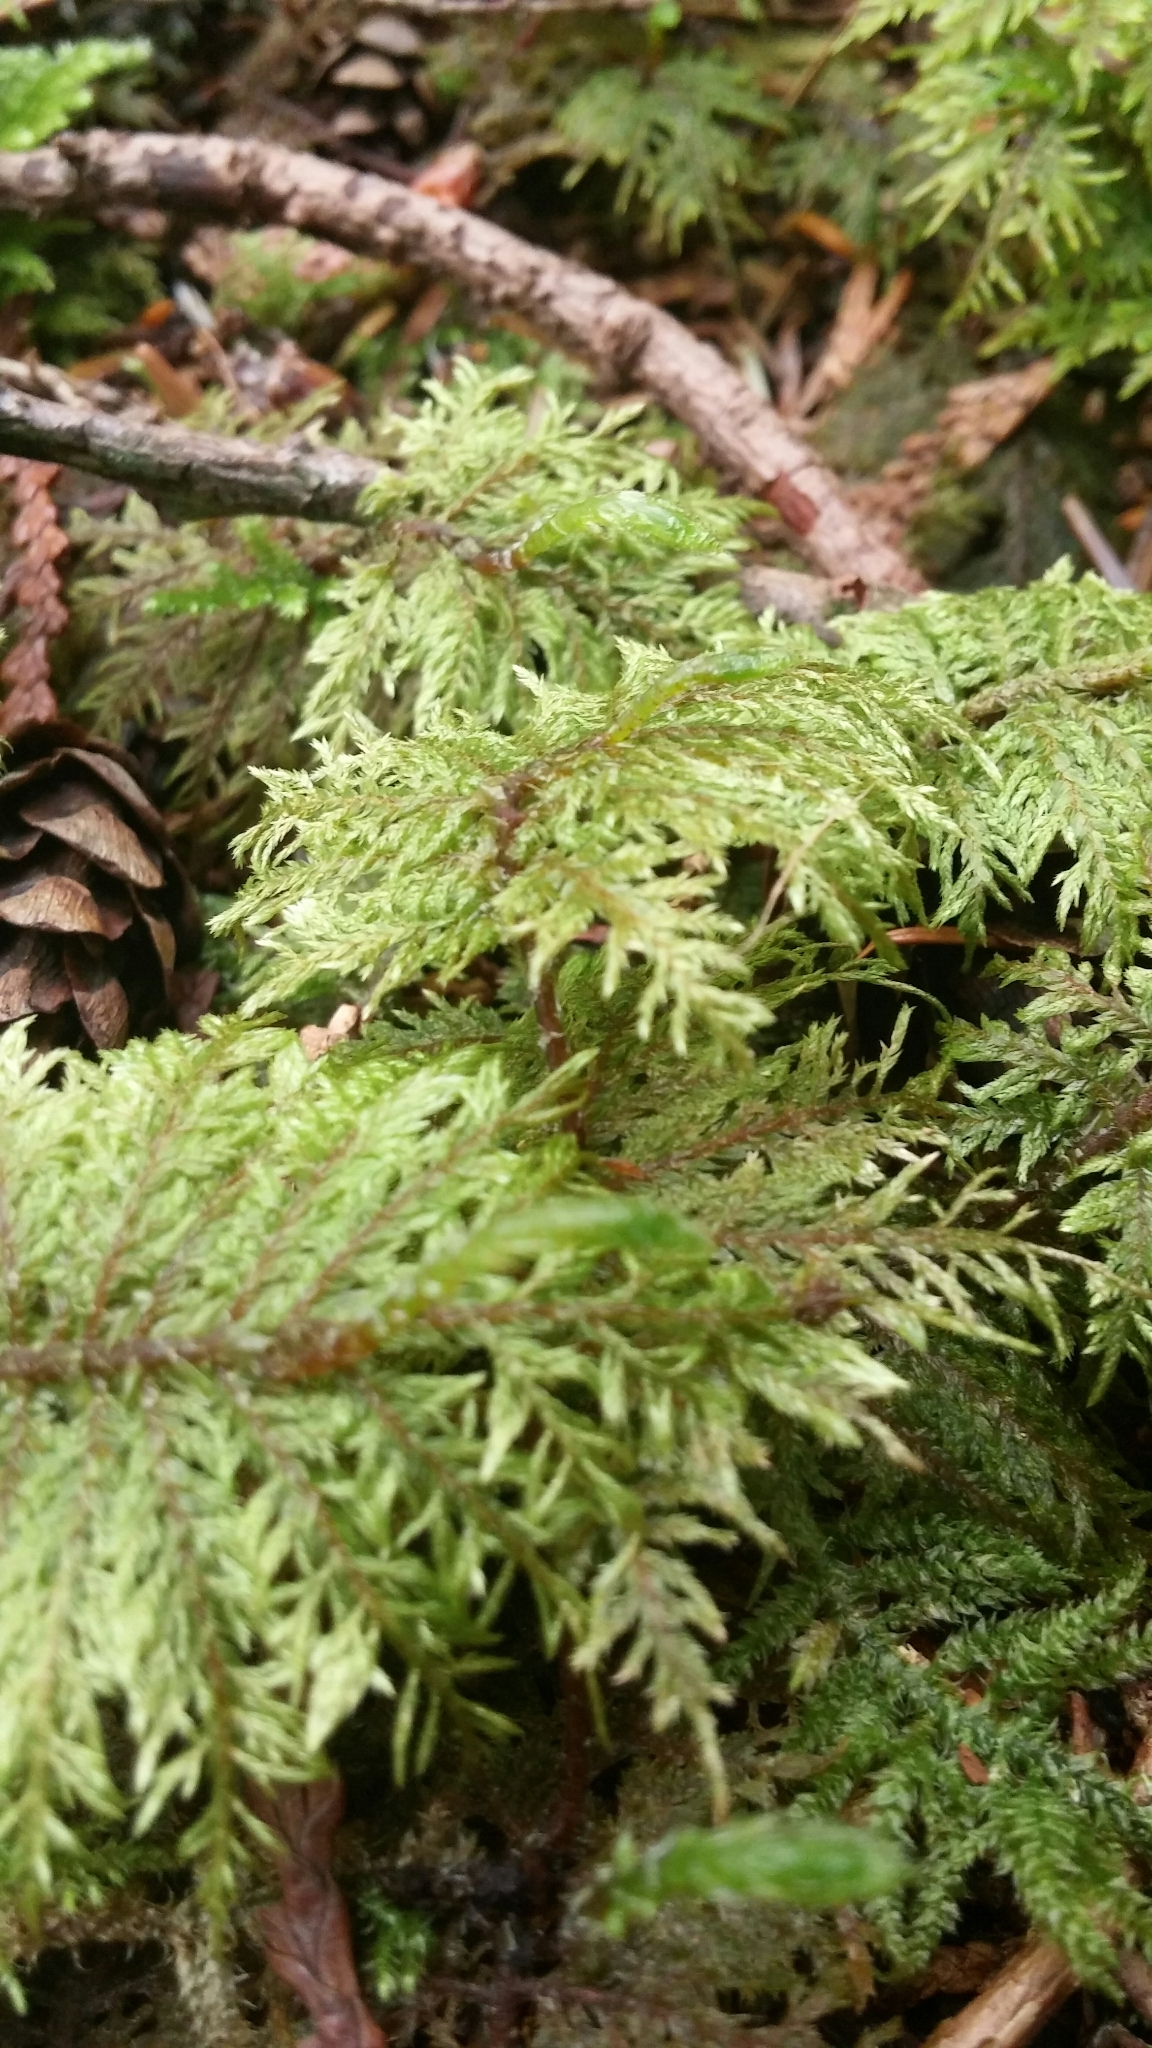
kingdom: Plantae
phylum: Bryophyta
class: Bryopsida
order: Hypnales
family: Hylocomiaceae
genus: Hylocomium
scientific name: Hylocomium splendens
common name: Stairstep moss
